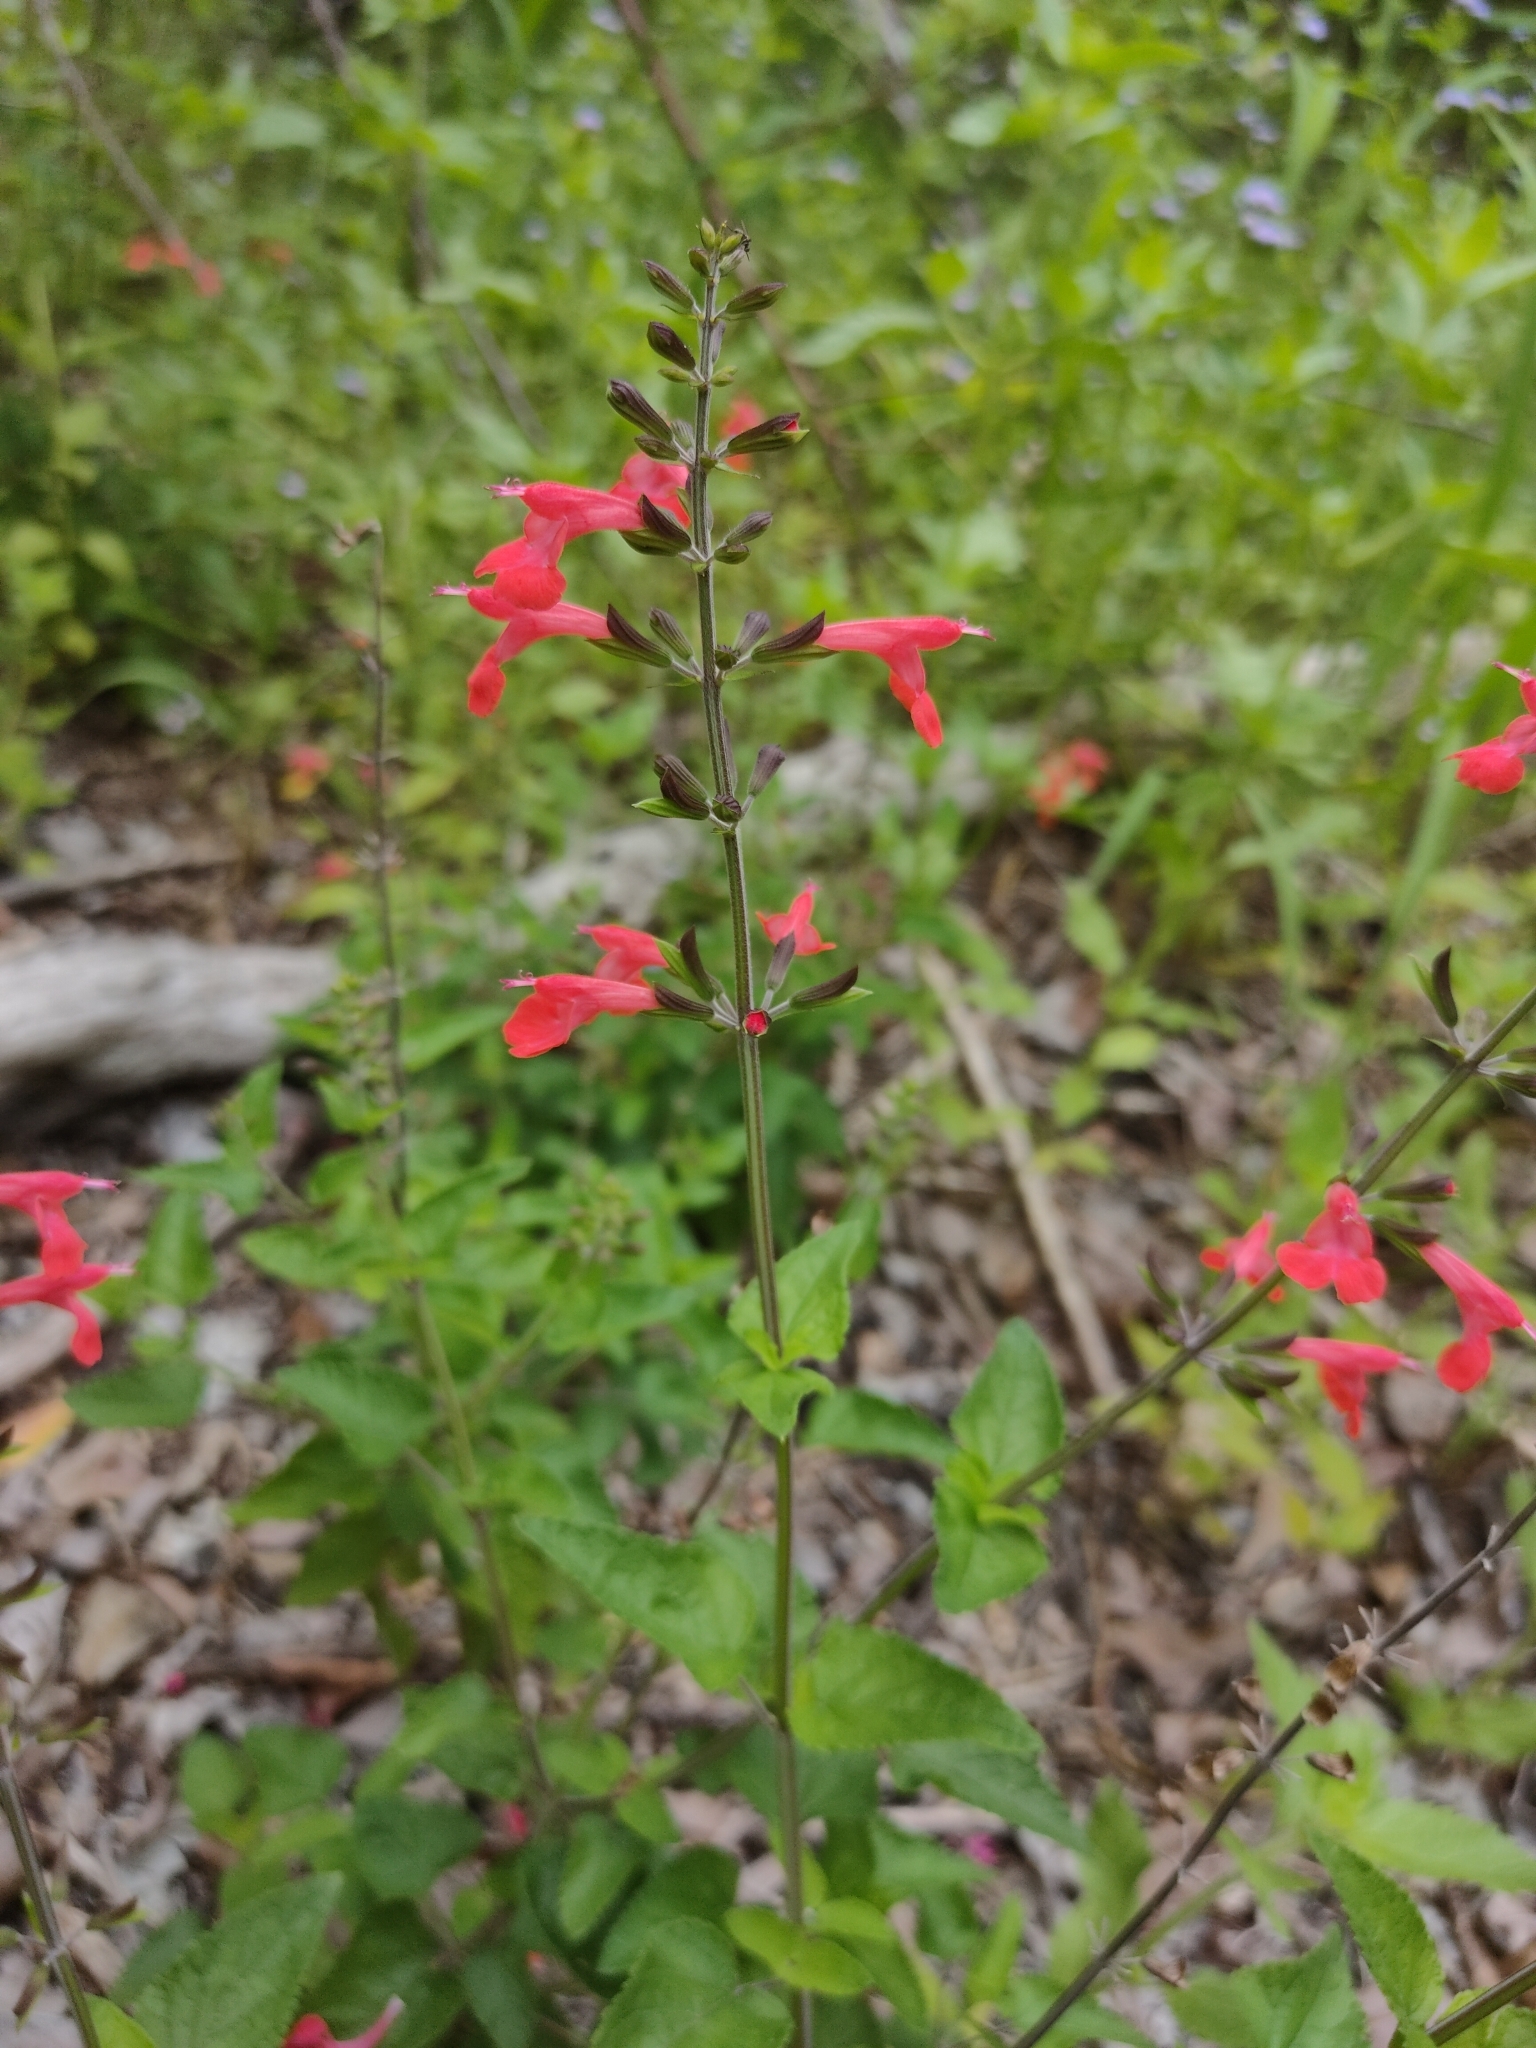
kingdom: Plantae
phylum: Tracheophyta
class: Magnoliopsida
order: Lamiales
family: Lamiaceae
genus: Salvia
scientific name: Salvia coccinea
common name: Blood sage
